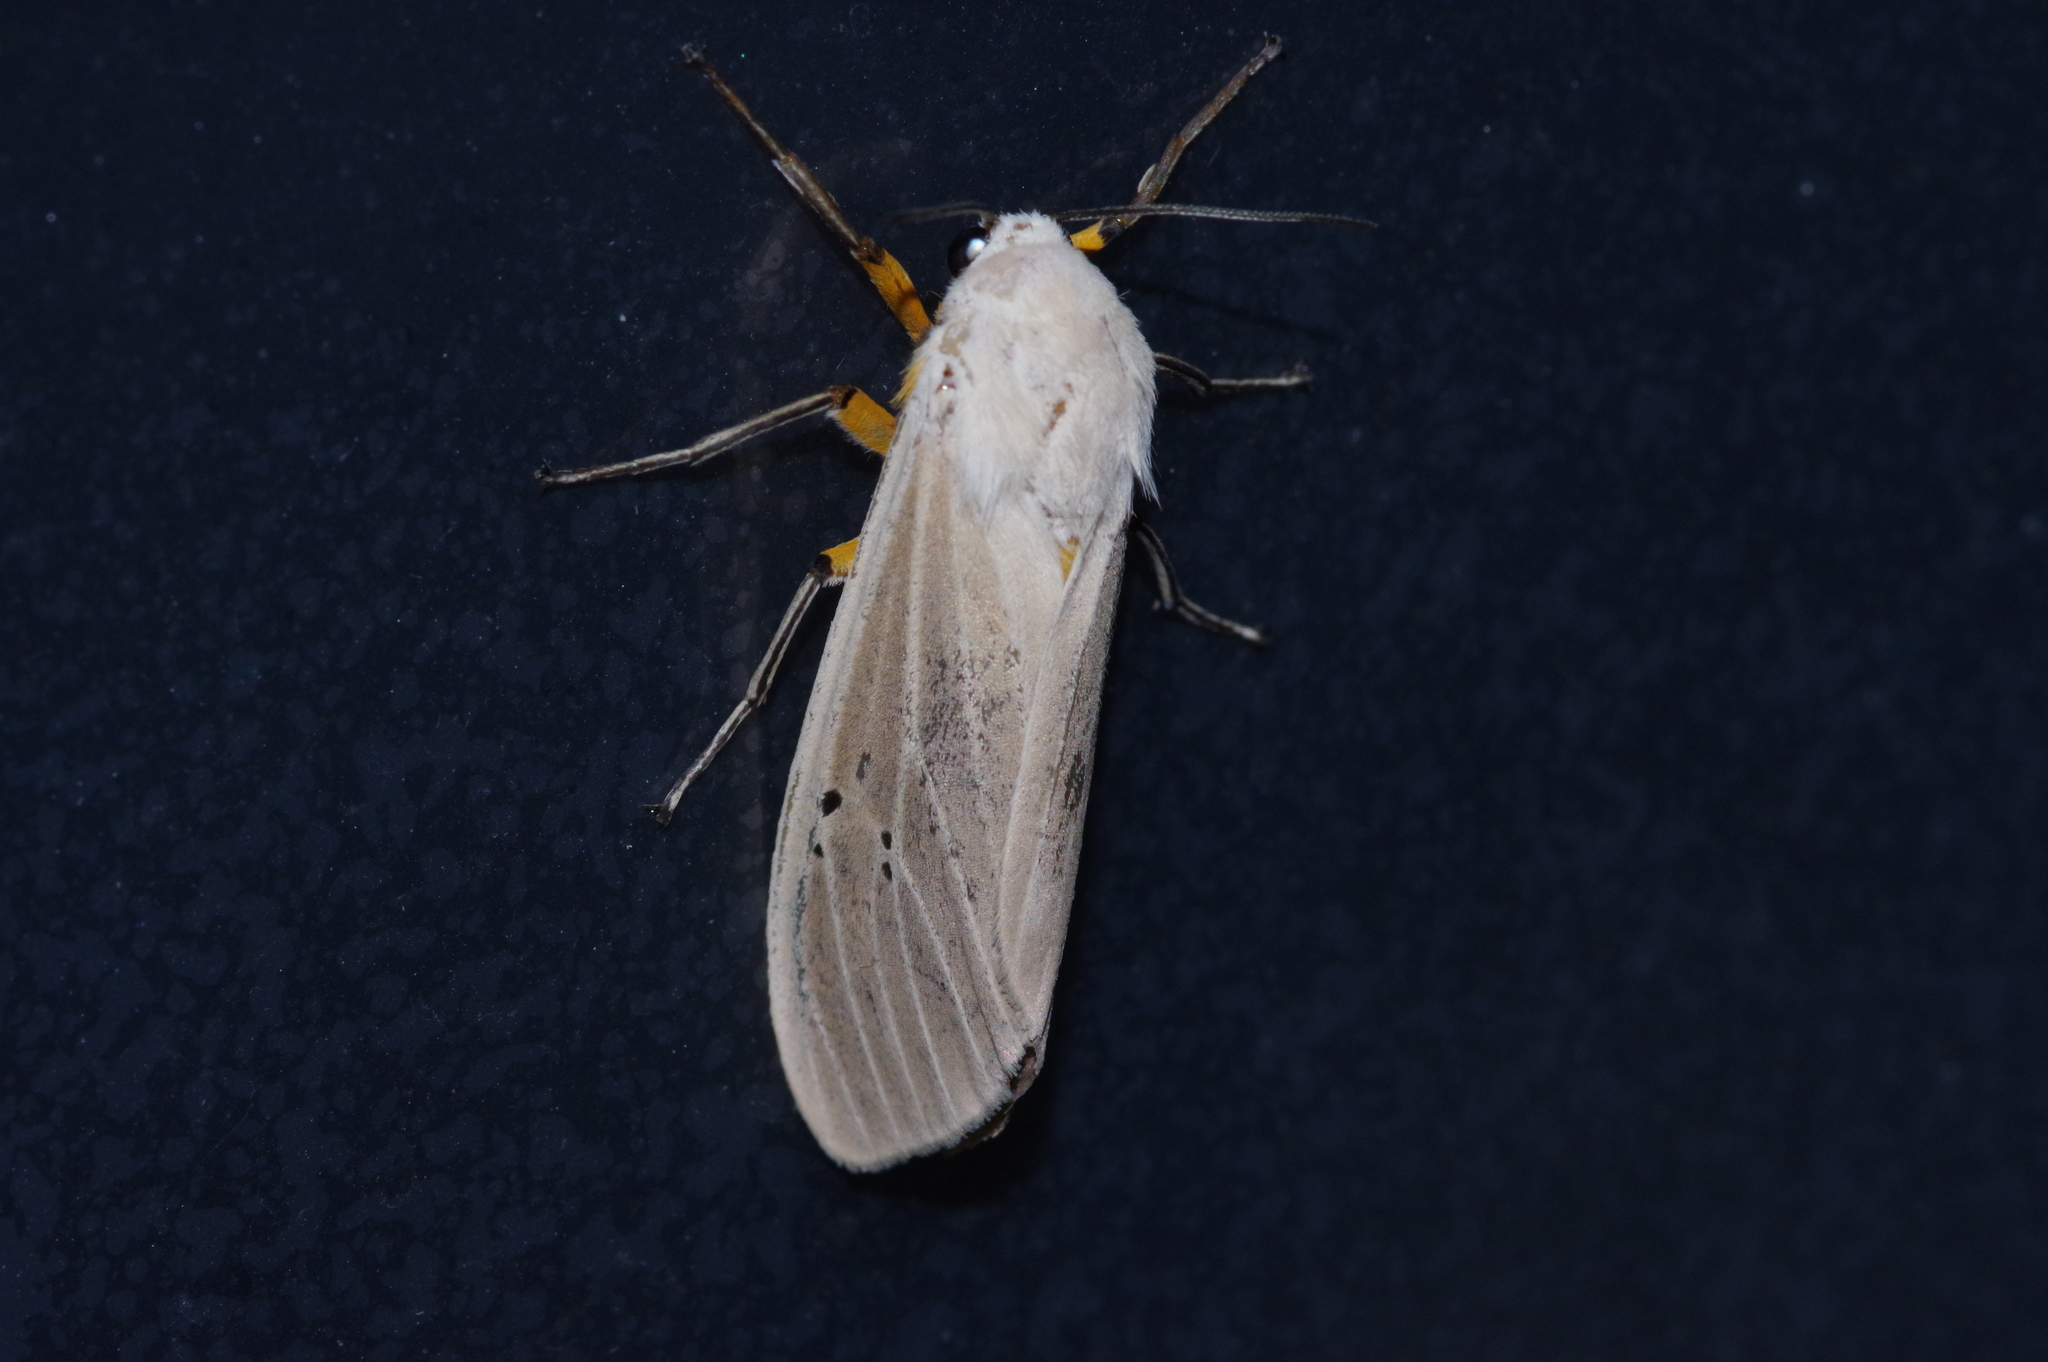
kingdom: Animalia
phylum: Arthropoda
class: Insecta
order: Lepidoptera
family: Erebidae
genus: Creatonotos
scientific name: Creatonotos transiens
